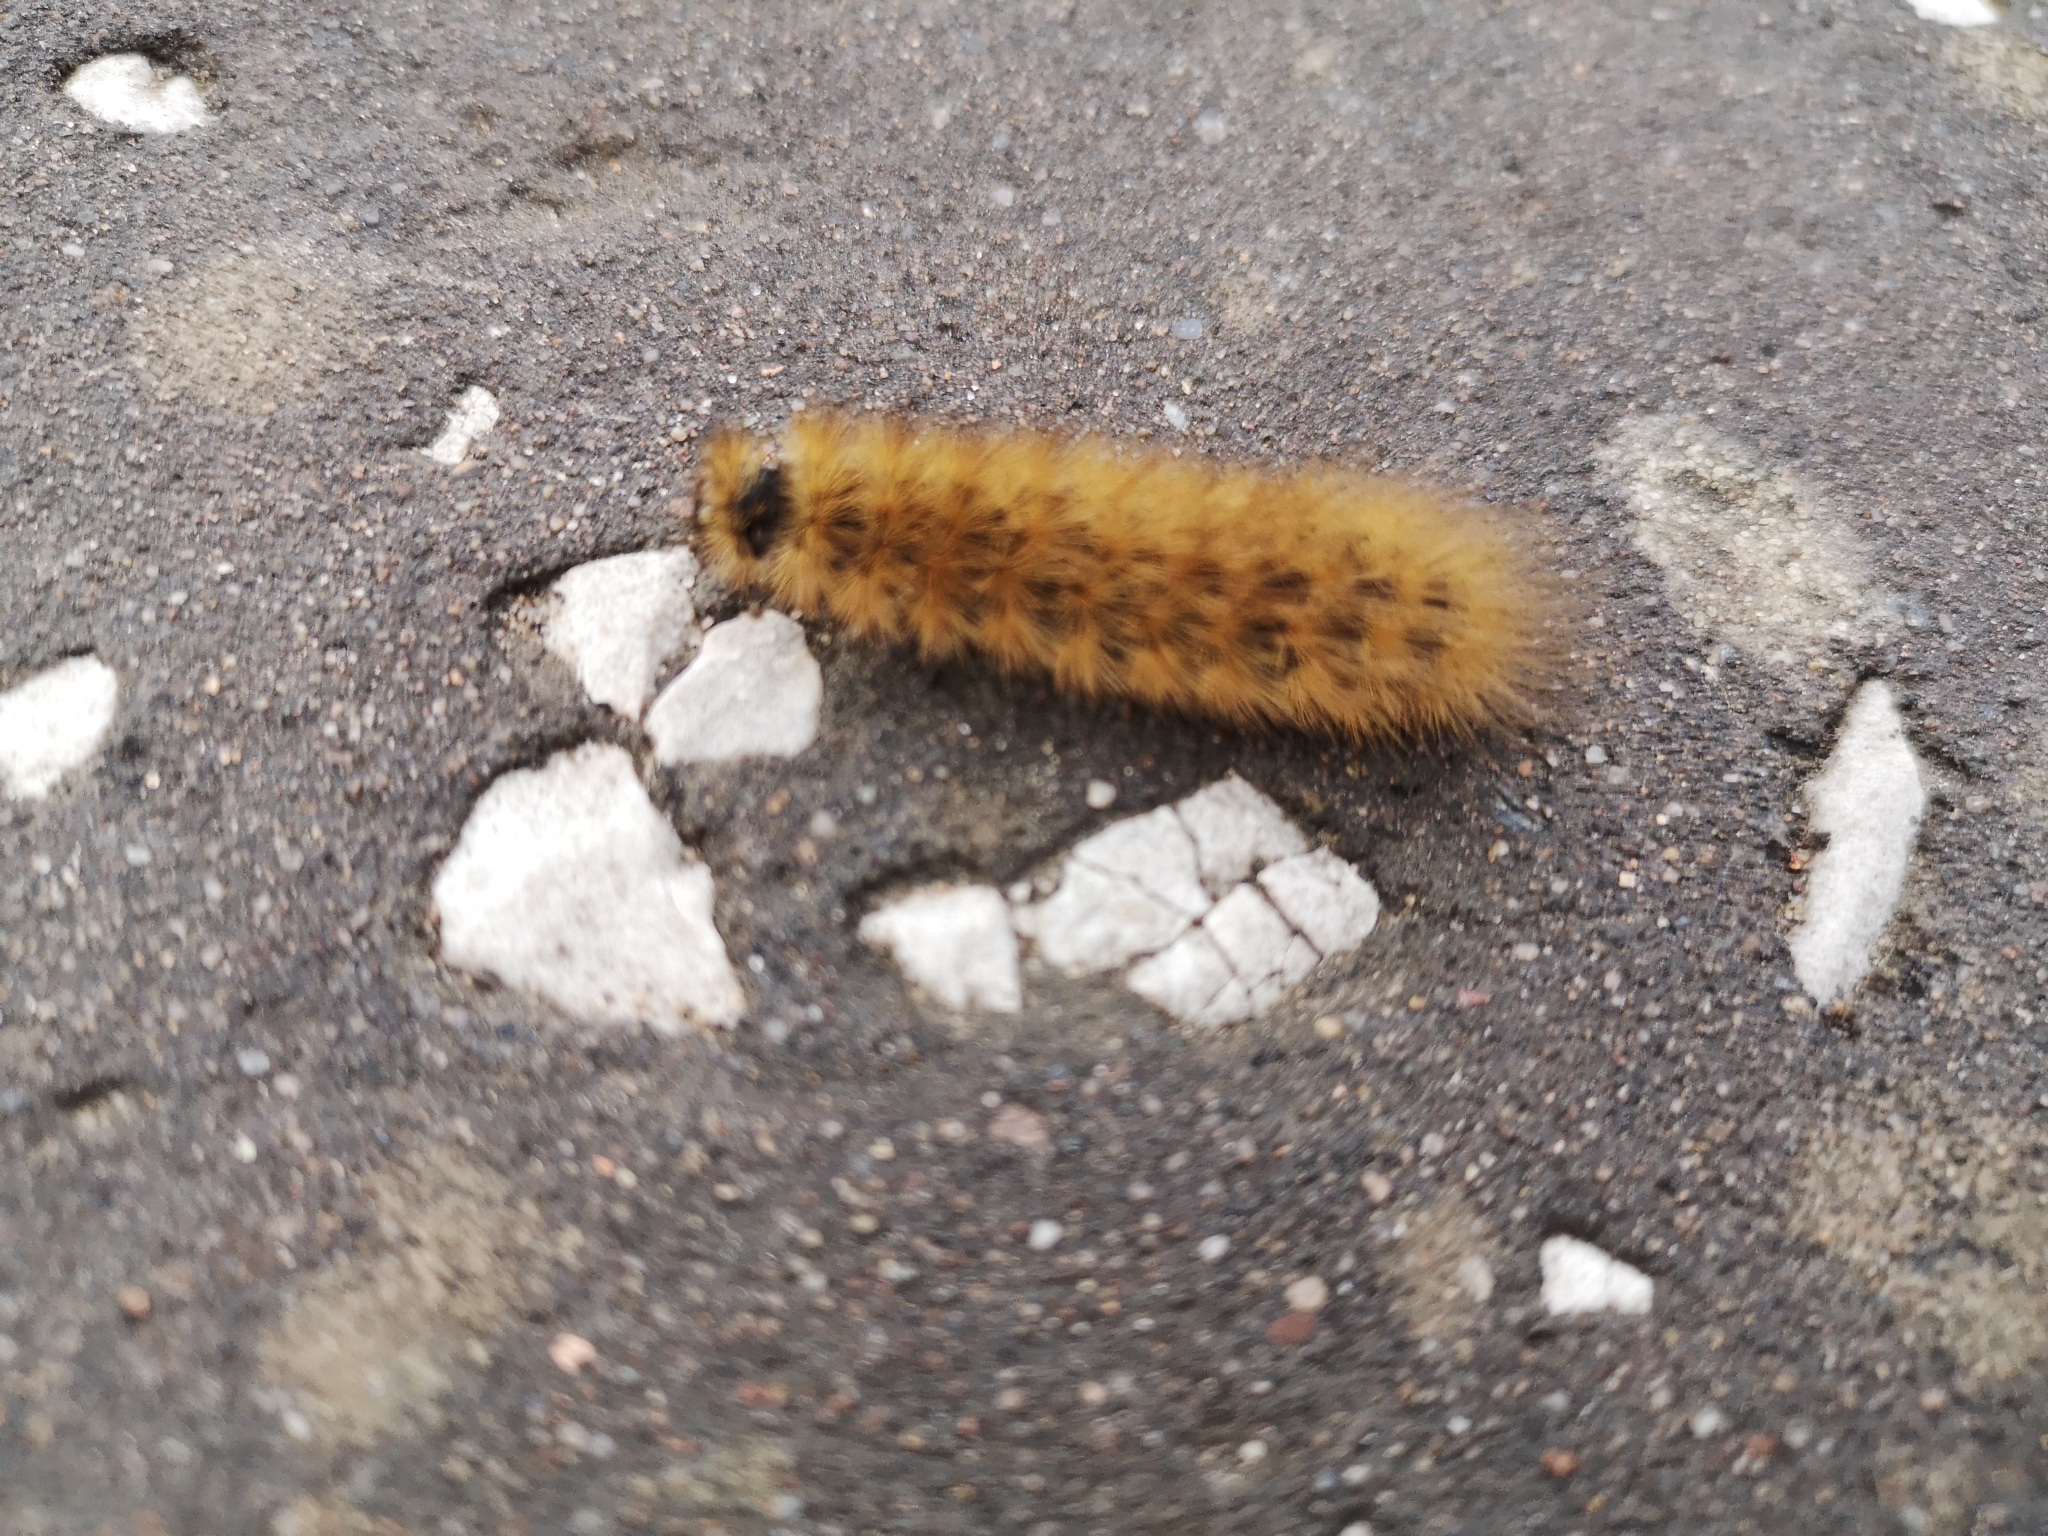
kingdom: Animalia
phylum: Arthropoda
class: Insecta
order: Lepidoptera
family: Erebidae
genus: Phragmatobia
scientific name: Phragmatobia fuliginosa
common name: Ruby tiger
